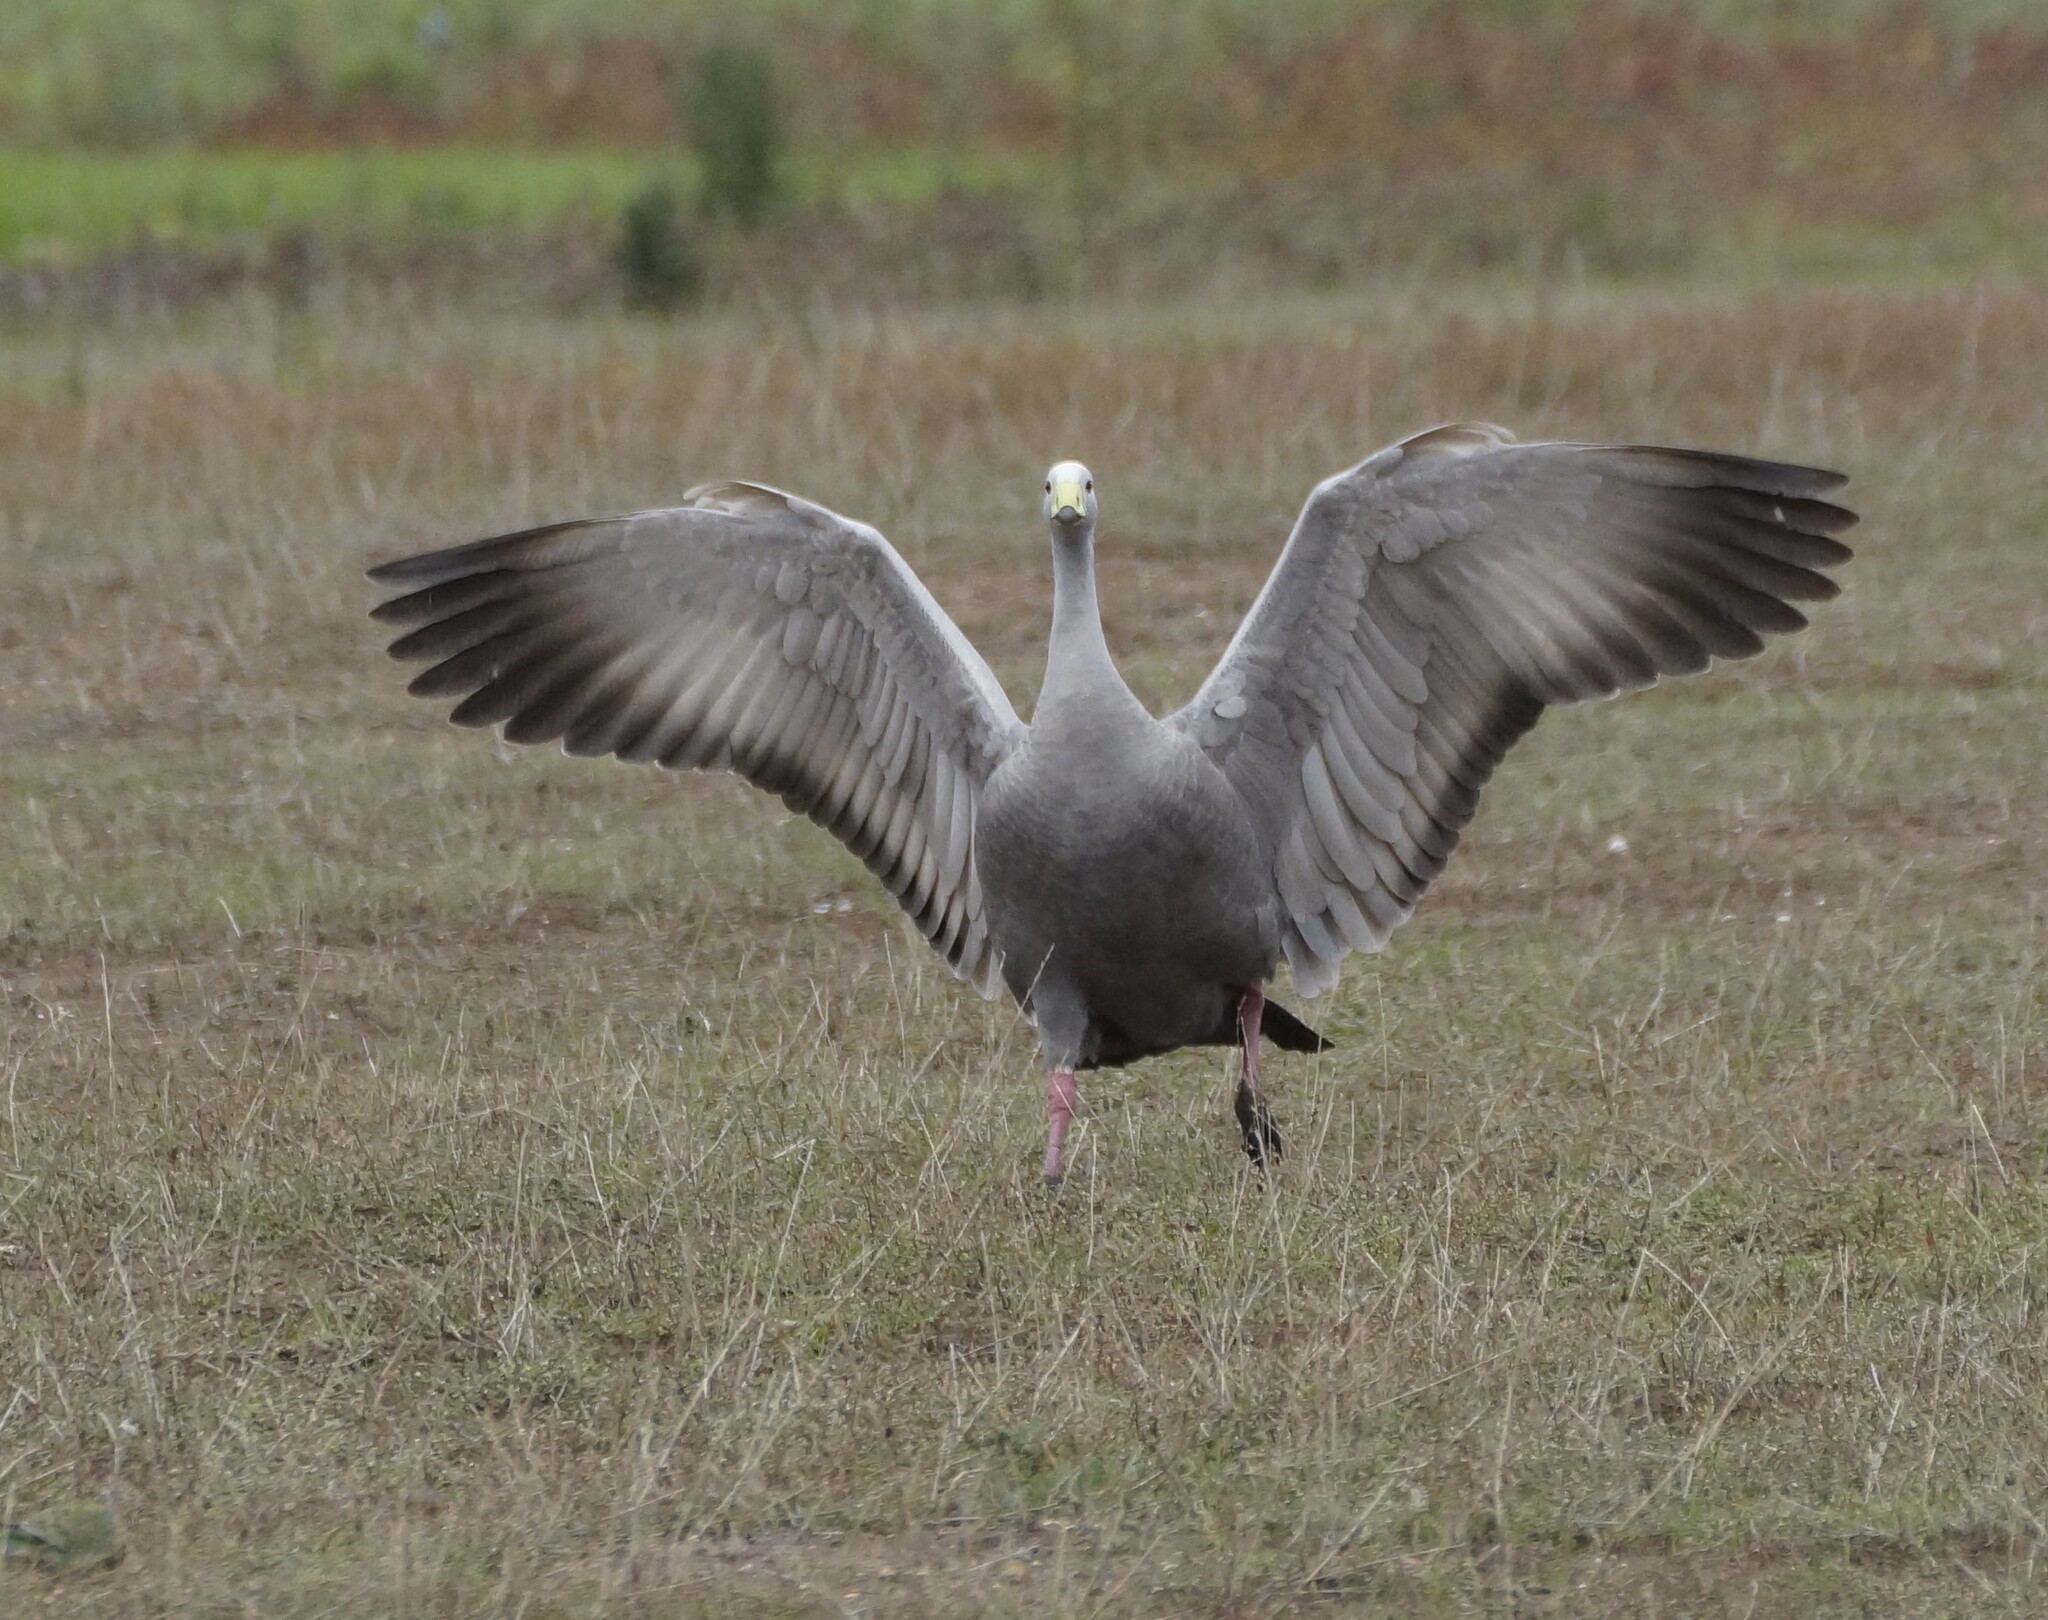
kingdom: Animalia
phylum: Chordata
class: Aves
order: Anseriformes
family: Anatidae
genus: Cereopsis
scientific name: Cereopsis novaehollandiae
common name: Cape barren goose
